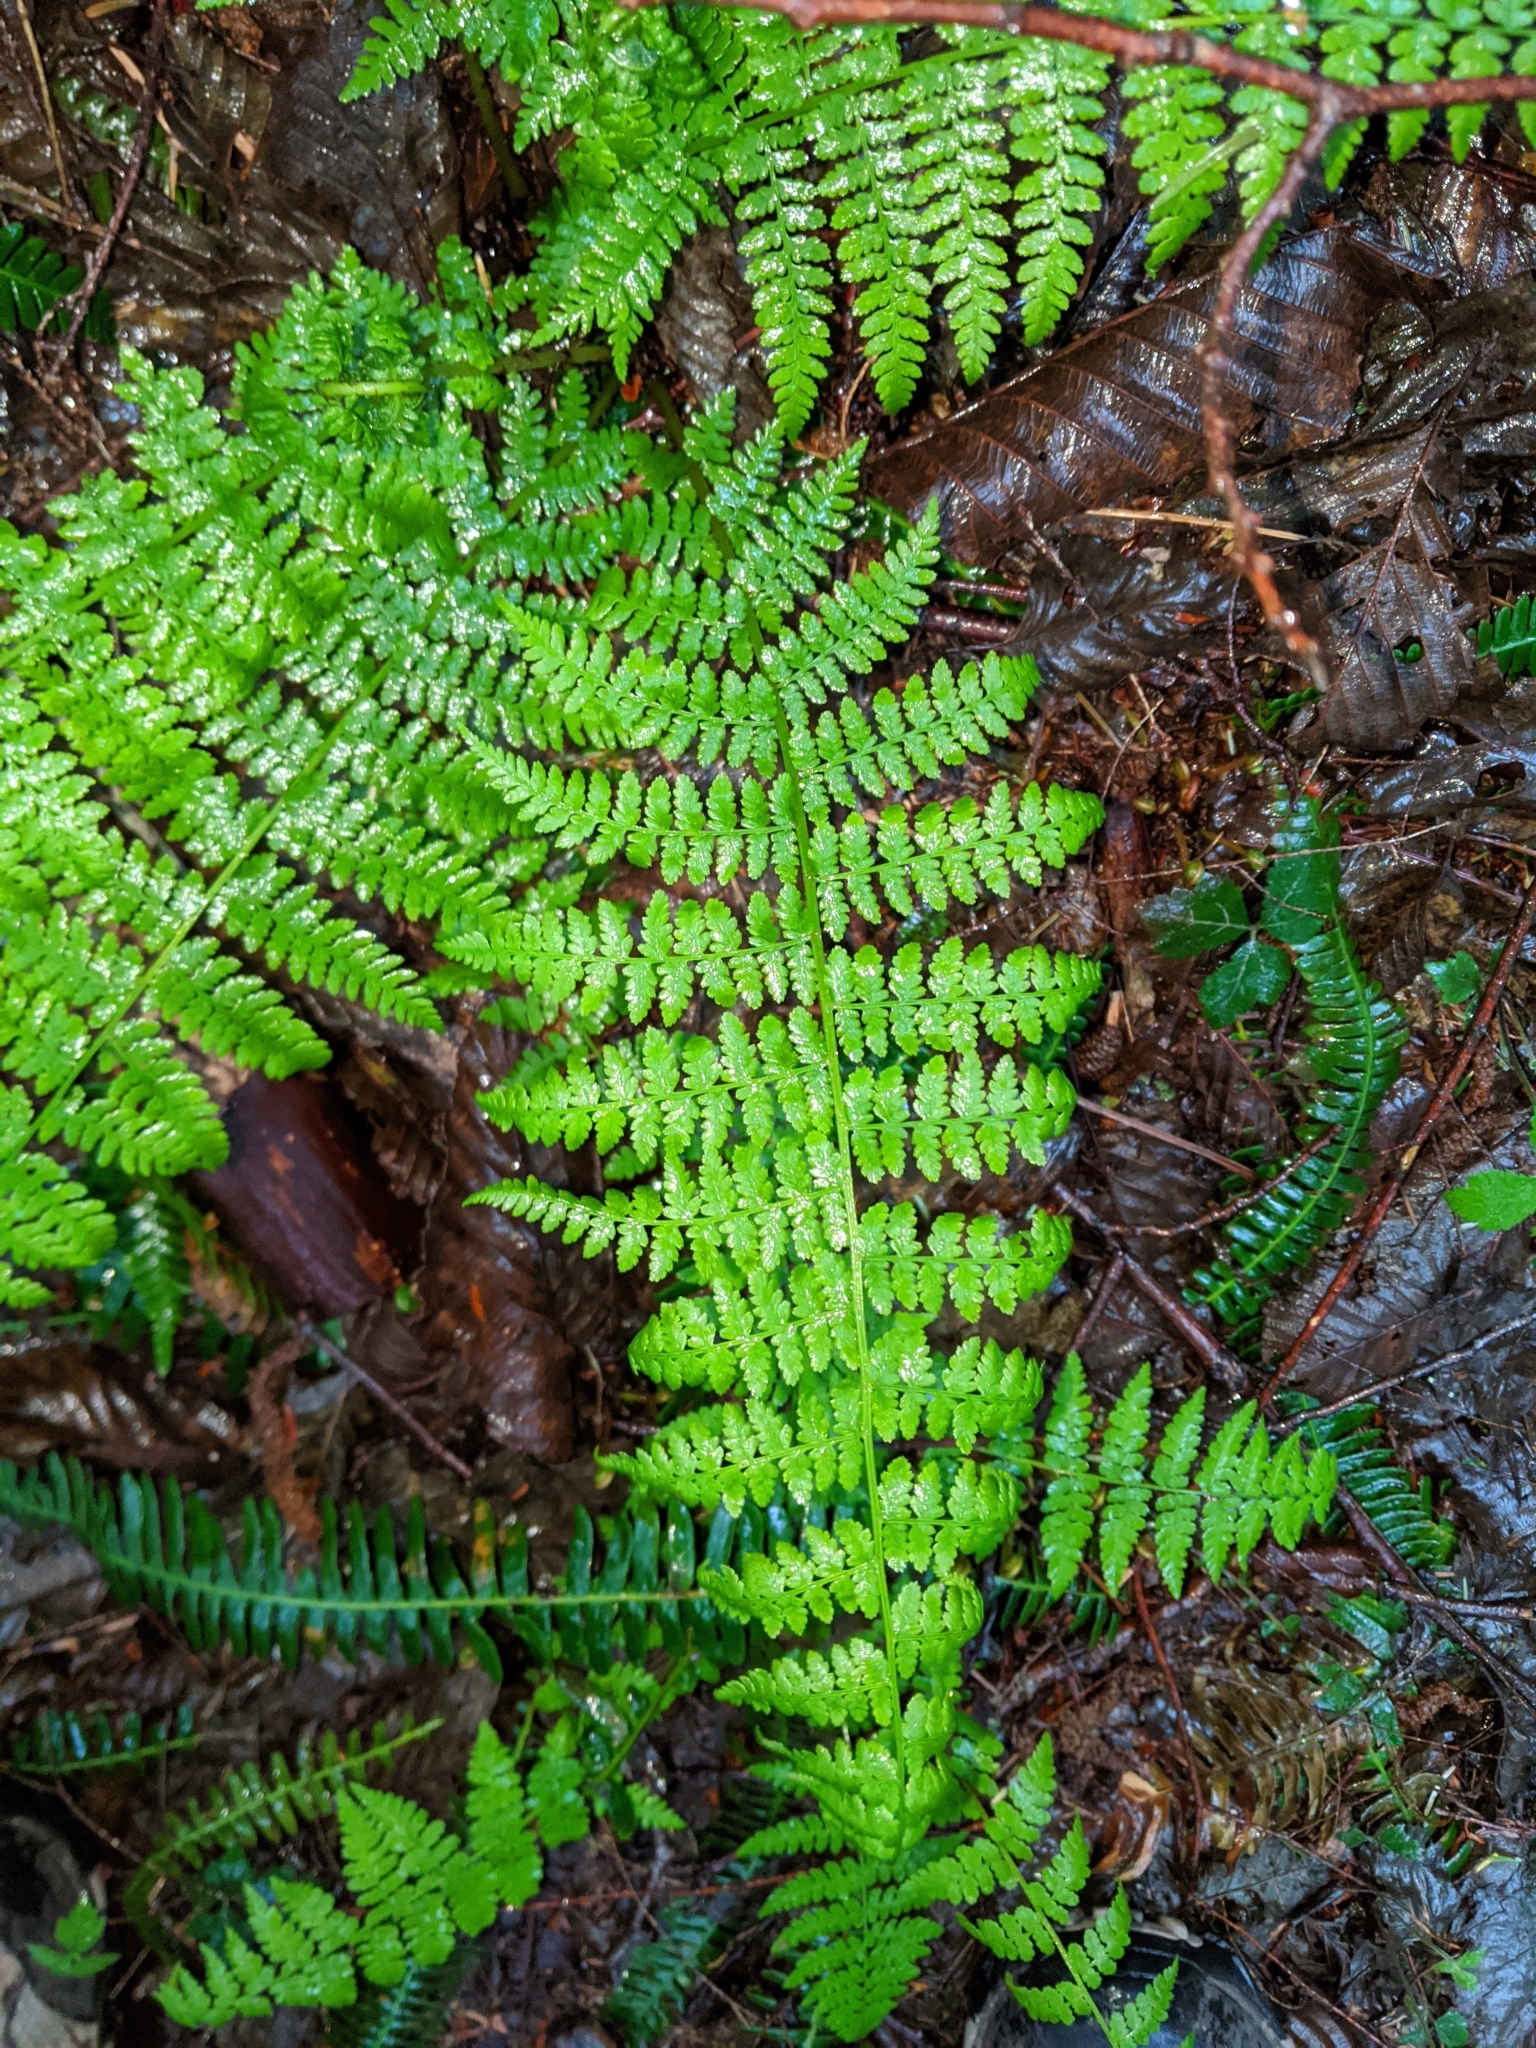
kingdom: Plantae
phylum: Tracheophyta
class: Polypodiopsida
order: Polypodiales
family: Athyriaceae
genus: Athyrium
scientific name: Athyrium filix-femina
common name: Lady fern
